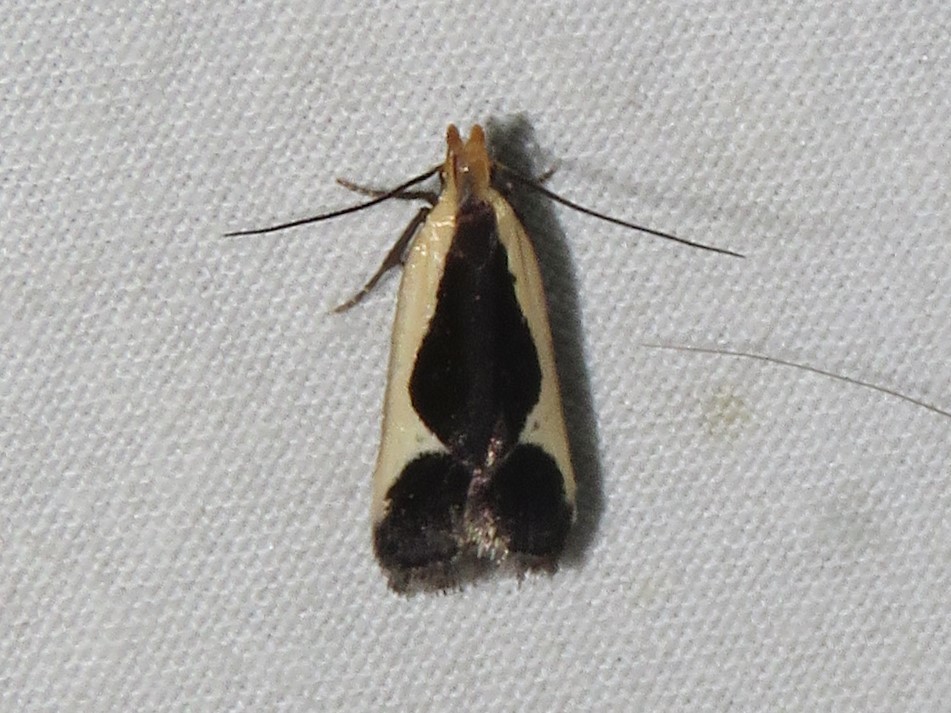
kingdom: Animalia
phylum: Arthropoda
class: Insecta
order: Lepidoptera
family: Gelechiidae
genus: Dichomeris
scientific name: Dichomeris flavocostella
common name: Cream-edged dichomeris moth
